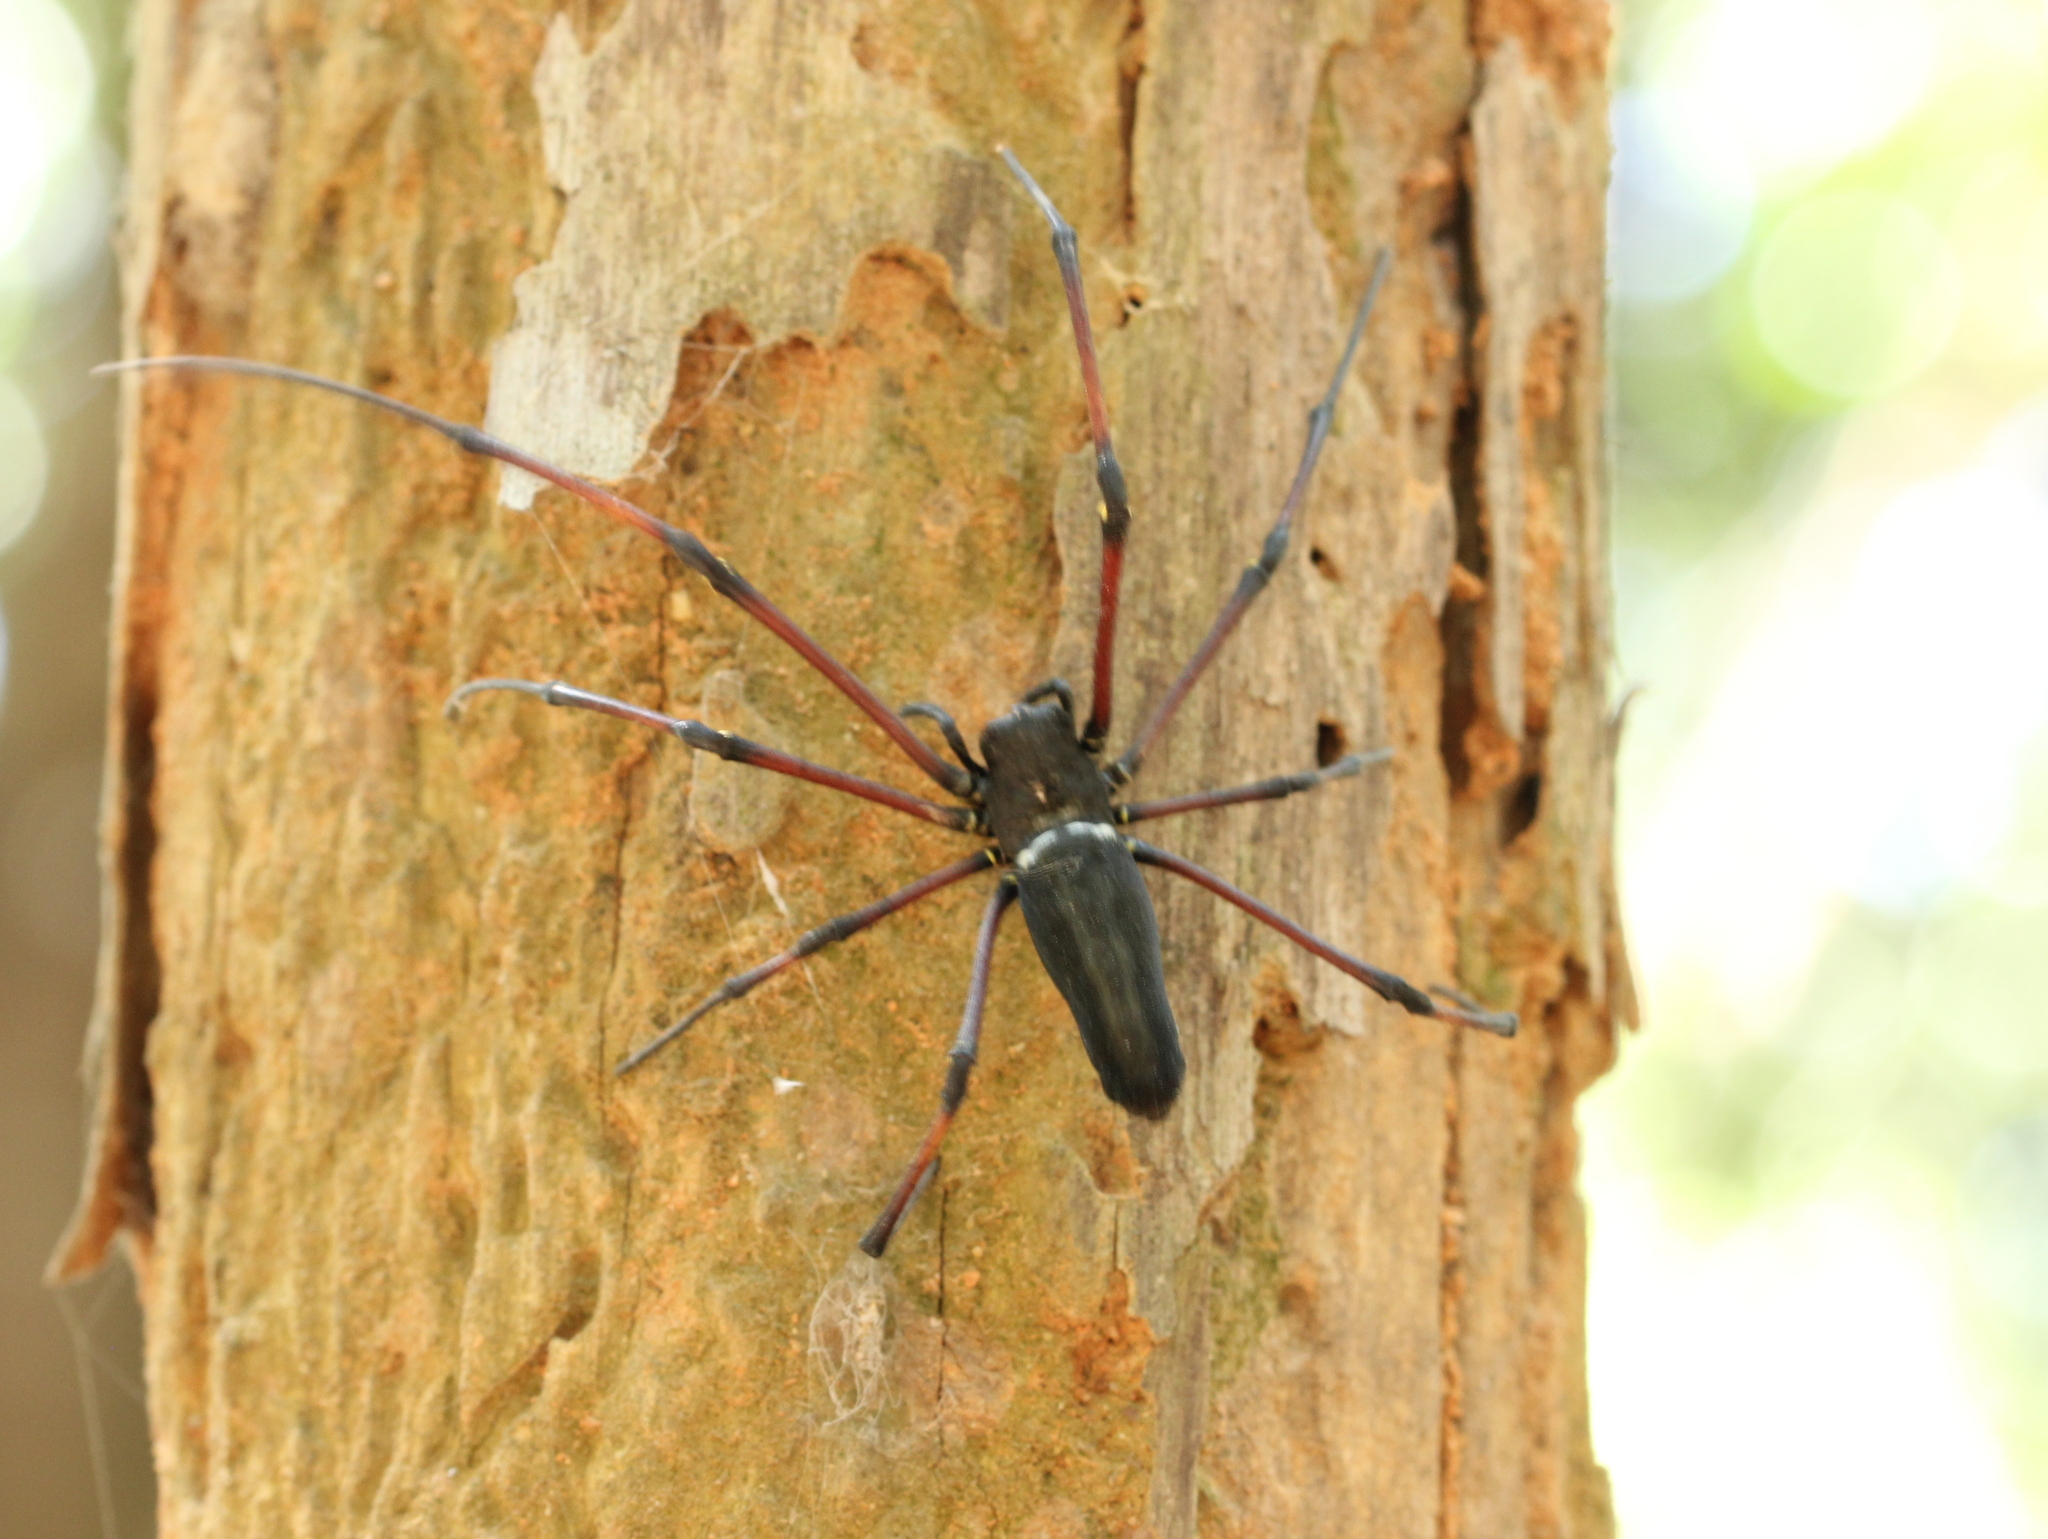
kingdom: Animalia
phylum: Arthropoda
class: Arachnida
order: Araneae
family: Araneidae
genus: Nephila
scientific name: Nephila kuhli
